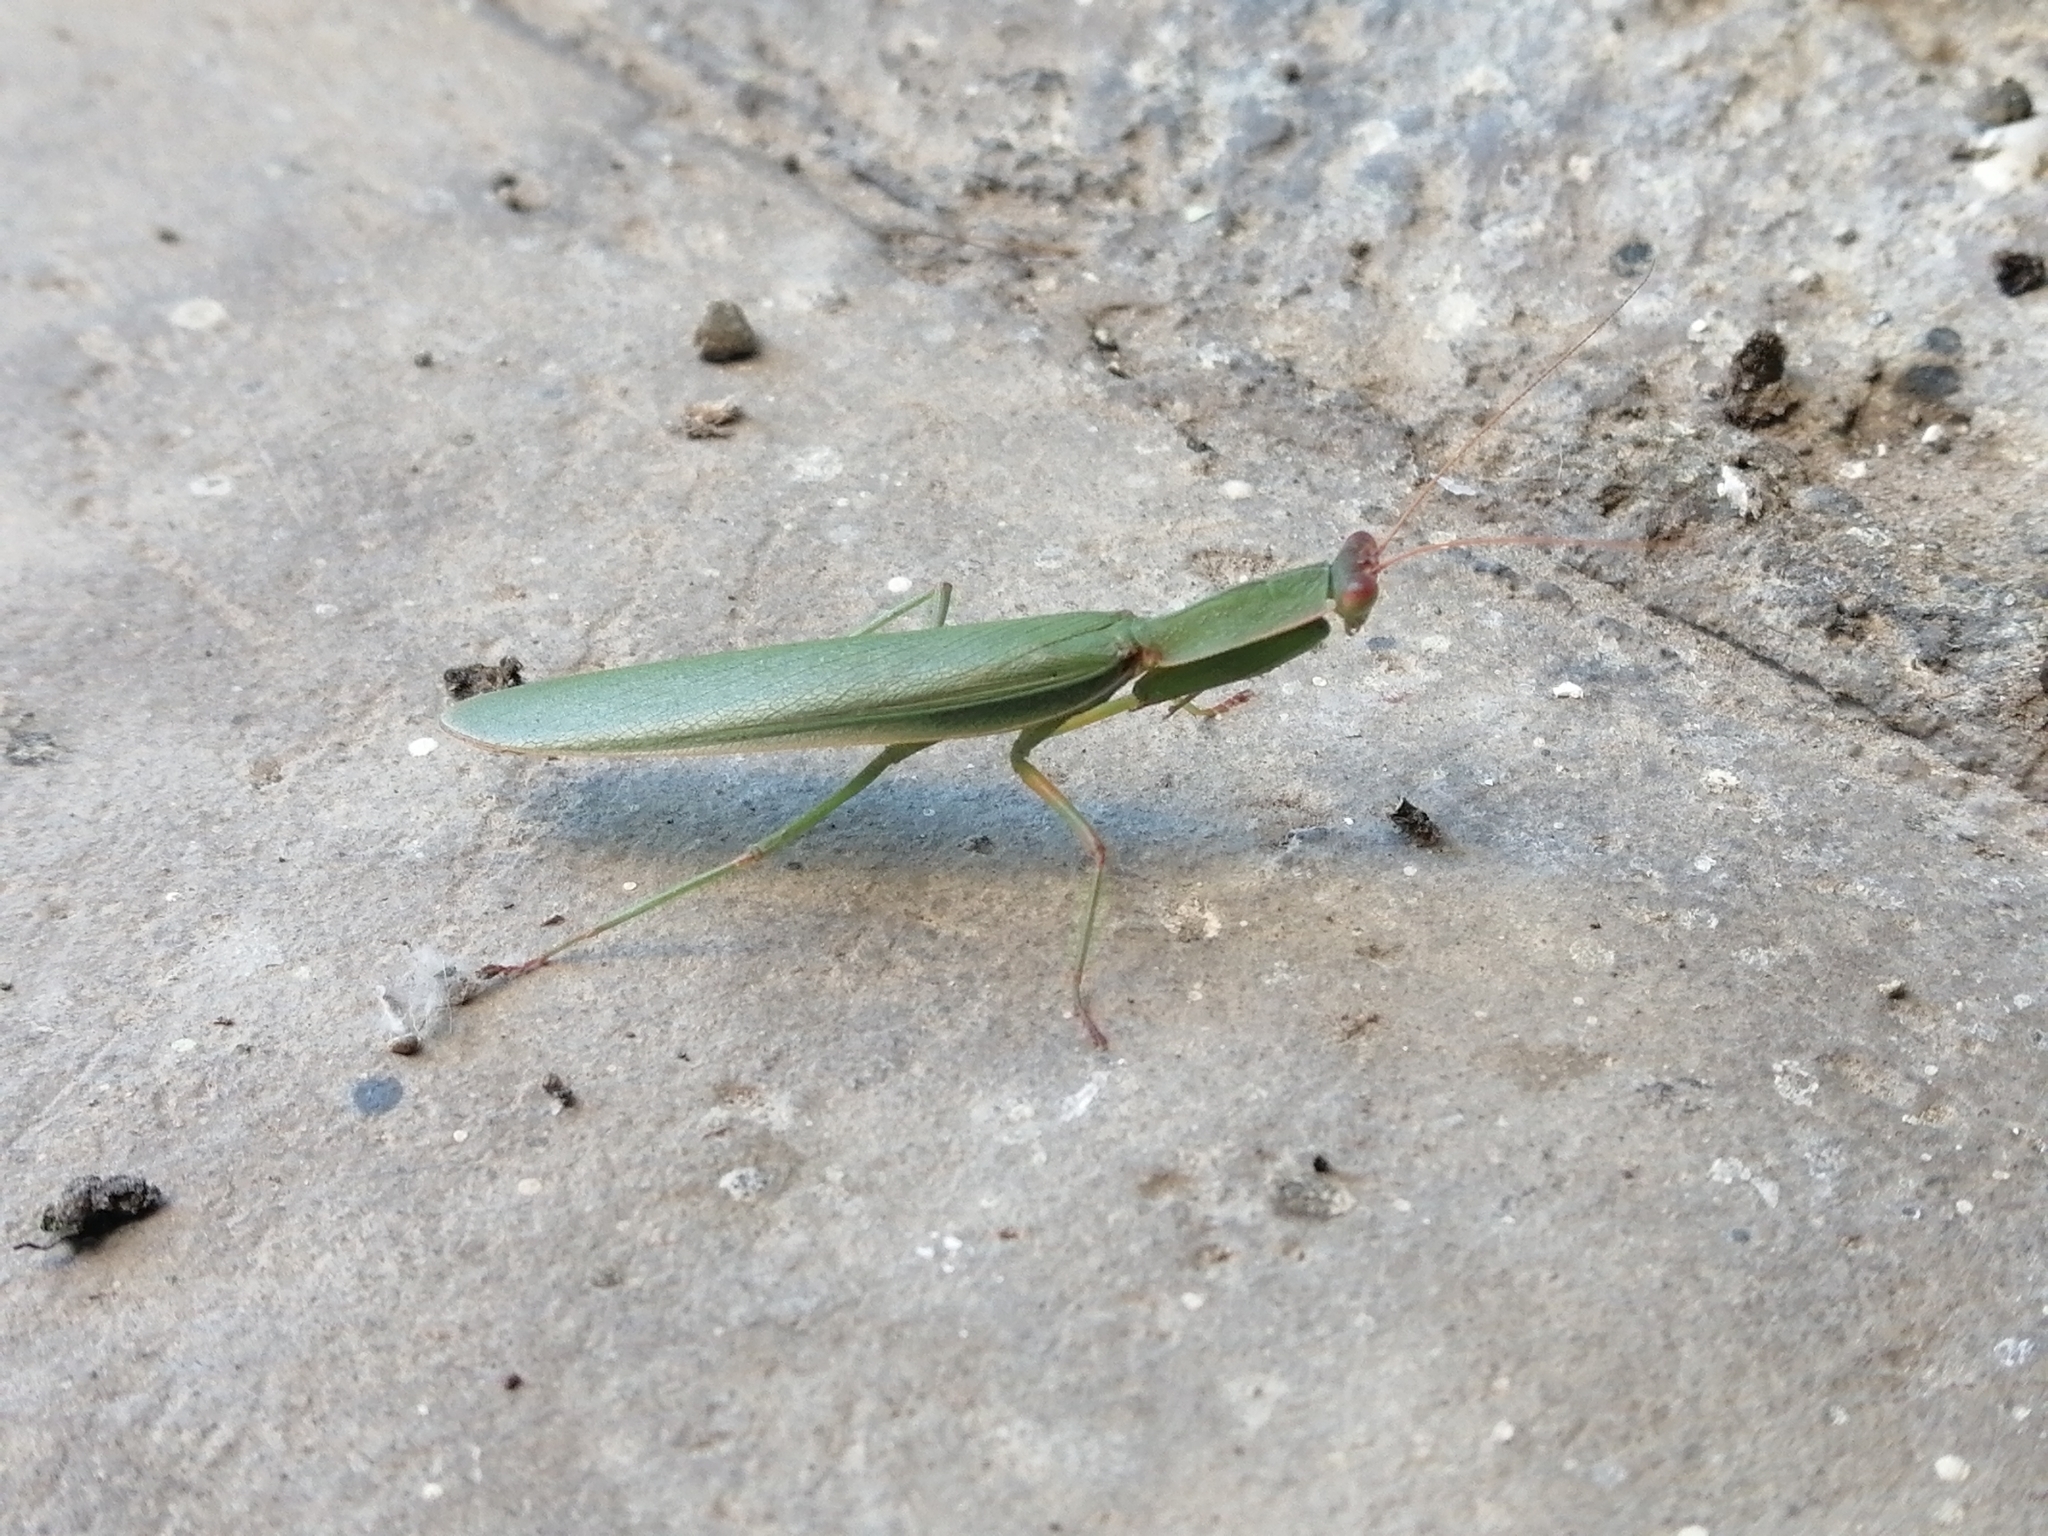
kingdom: Animalia
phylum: Arthropoda
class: Insecta
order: Mantodea
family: Mantidae
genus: Orthodera
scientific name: Orthodera novaezealandiae
